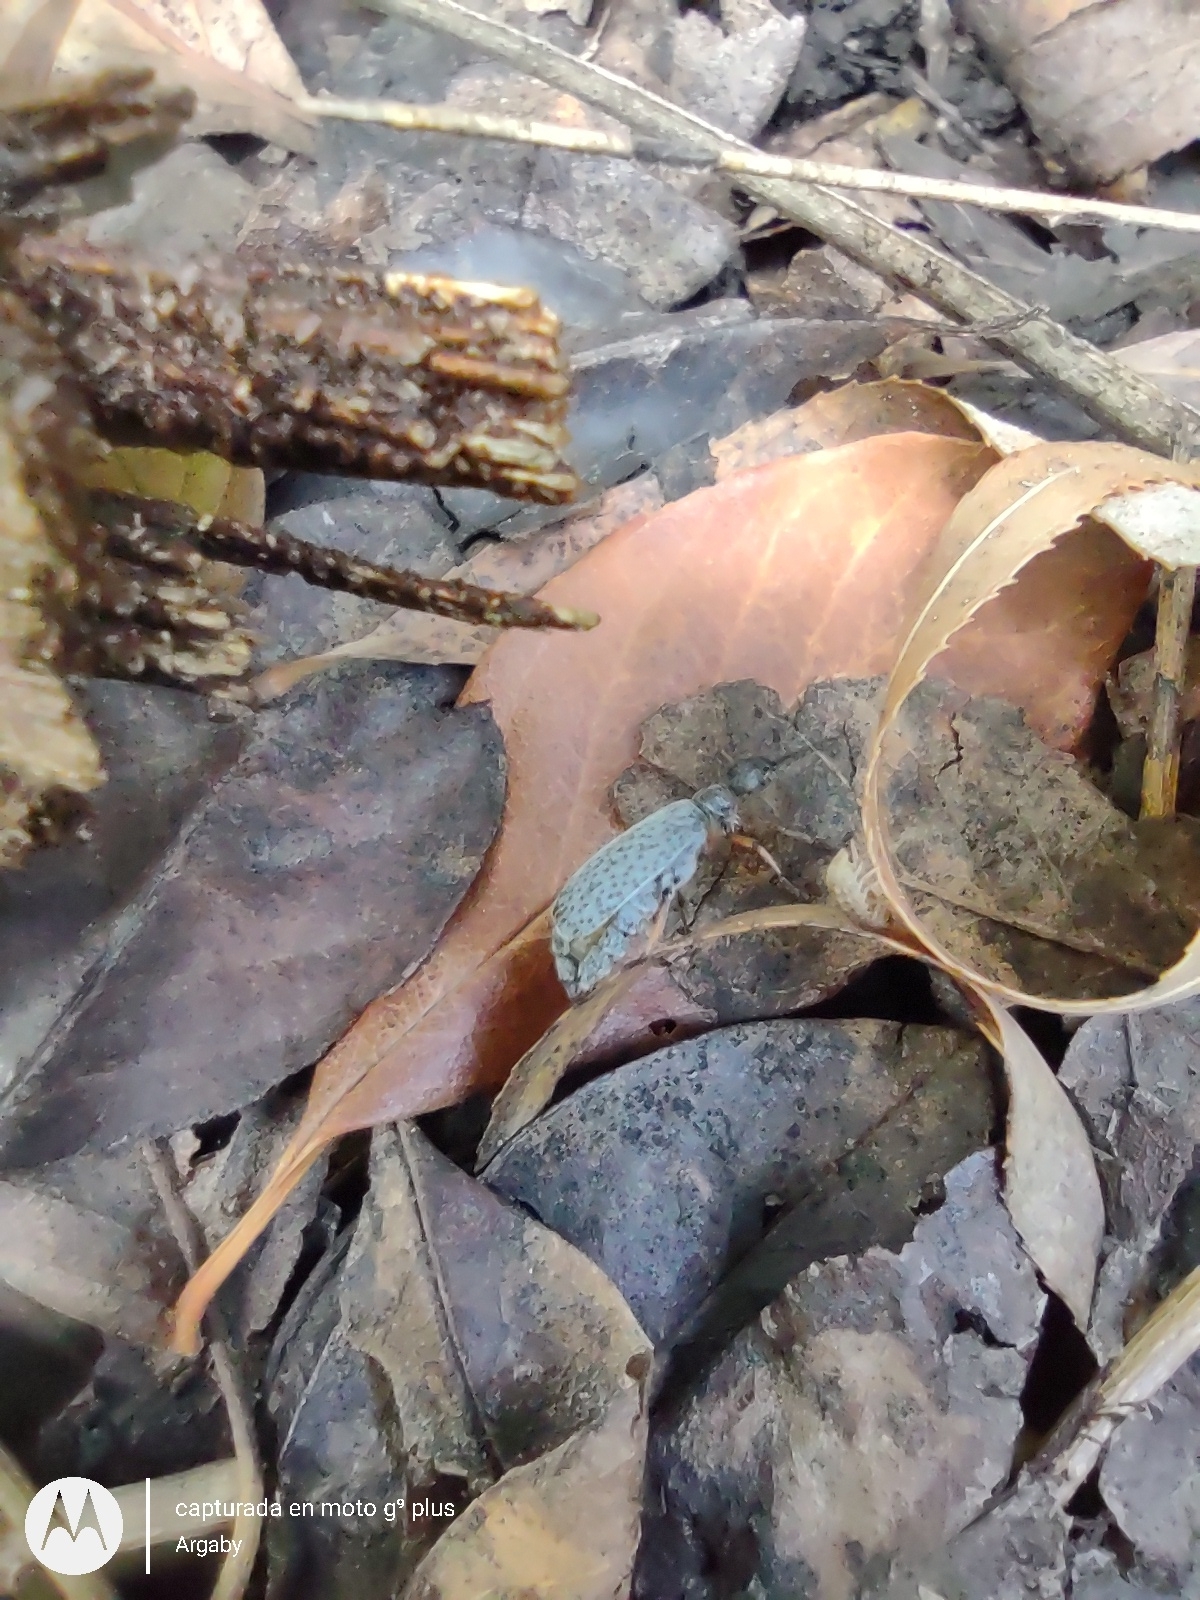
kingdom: Animalia
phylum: Arthropoda
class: Insecta
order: Coleoptera
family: Meloidae
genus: Epicauta
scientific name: Epicauta
